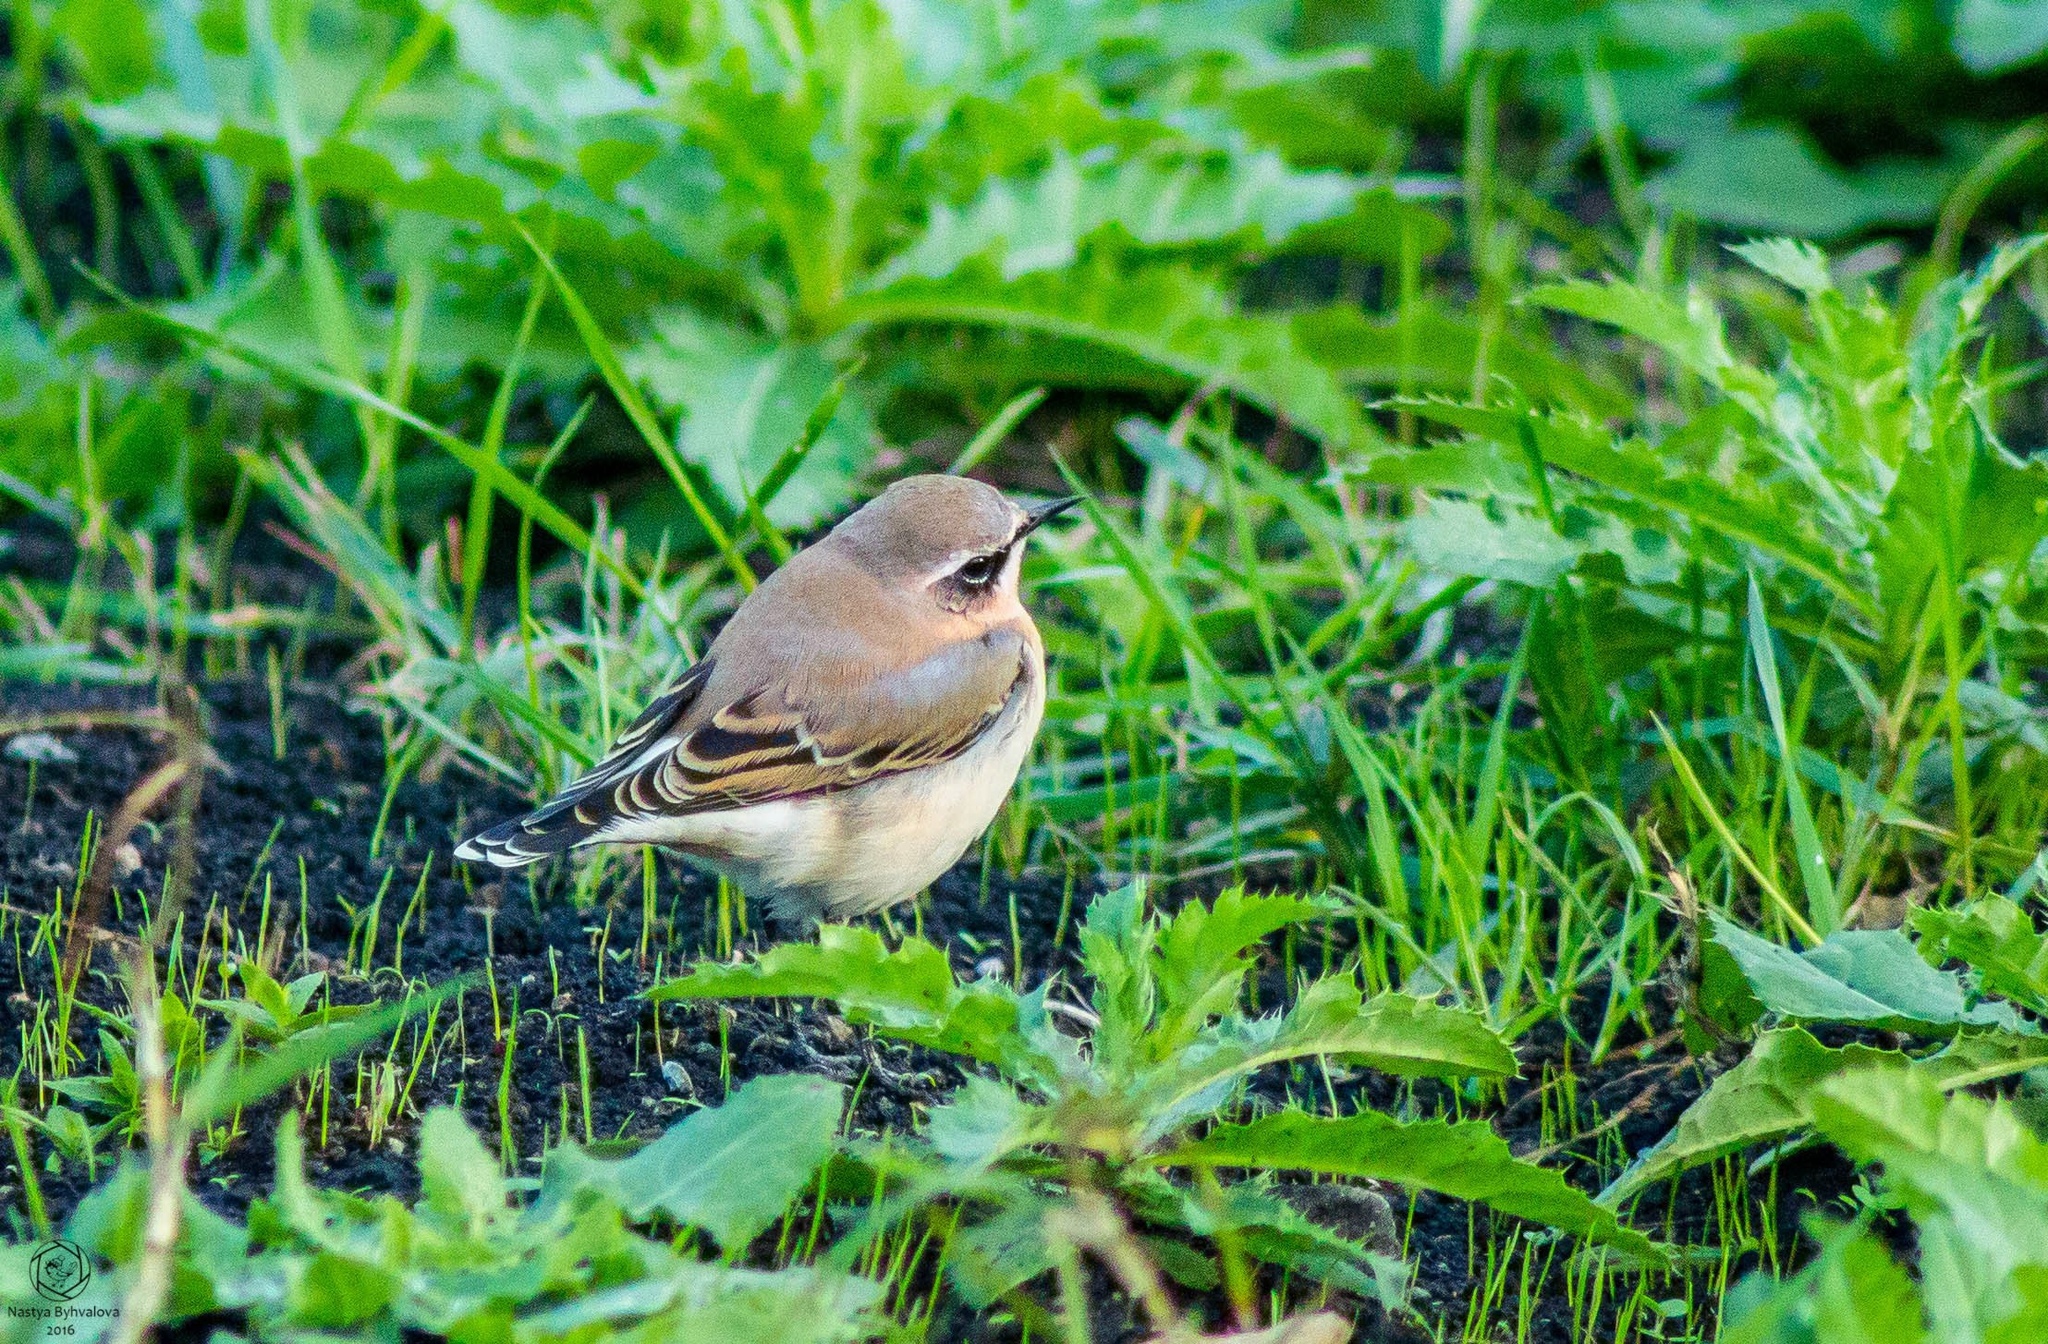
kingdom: Animalia
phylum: Chordata
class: Aves
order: Passeriformes
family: Muscicapidae
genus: Oenanthe
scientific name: Oenanthe oenanthe
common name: Northern wheatear
